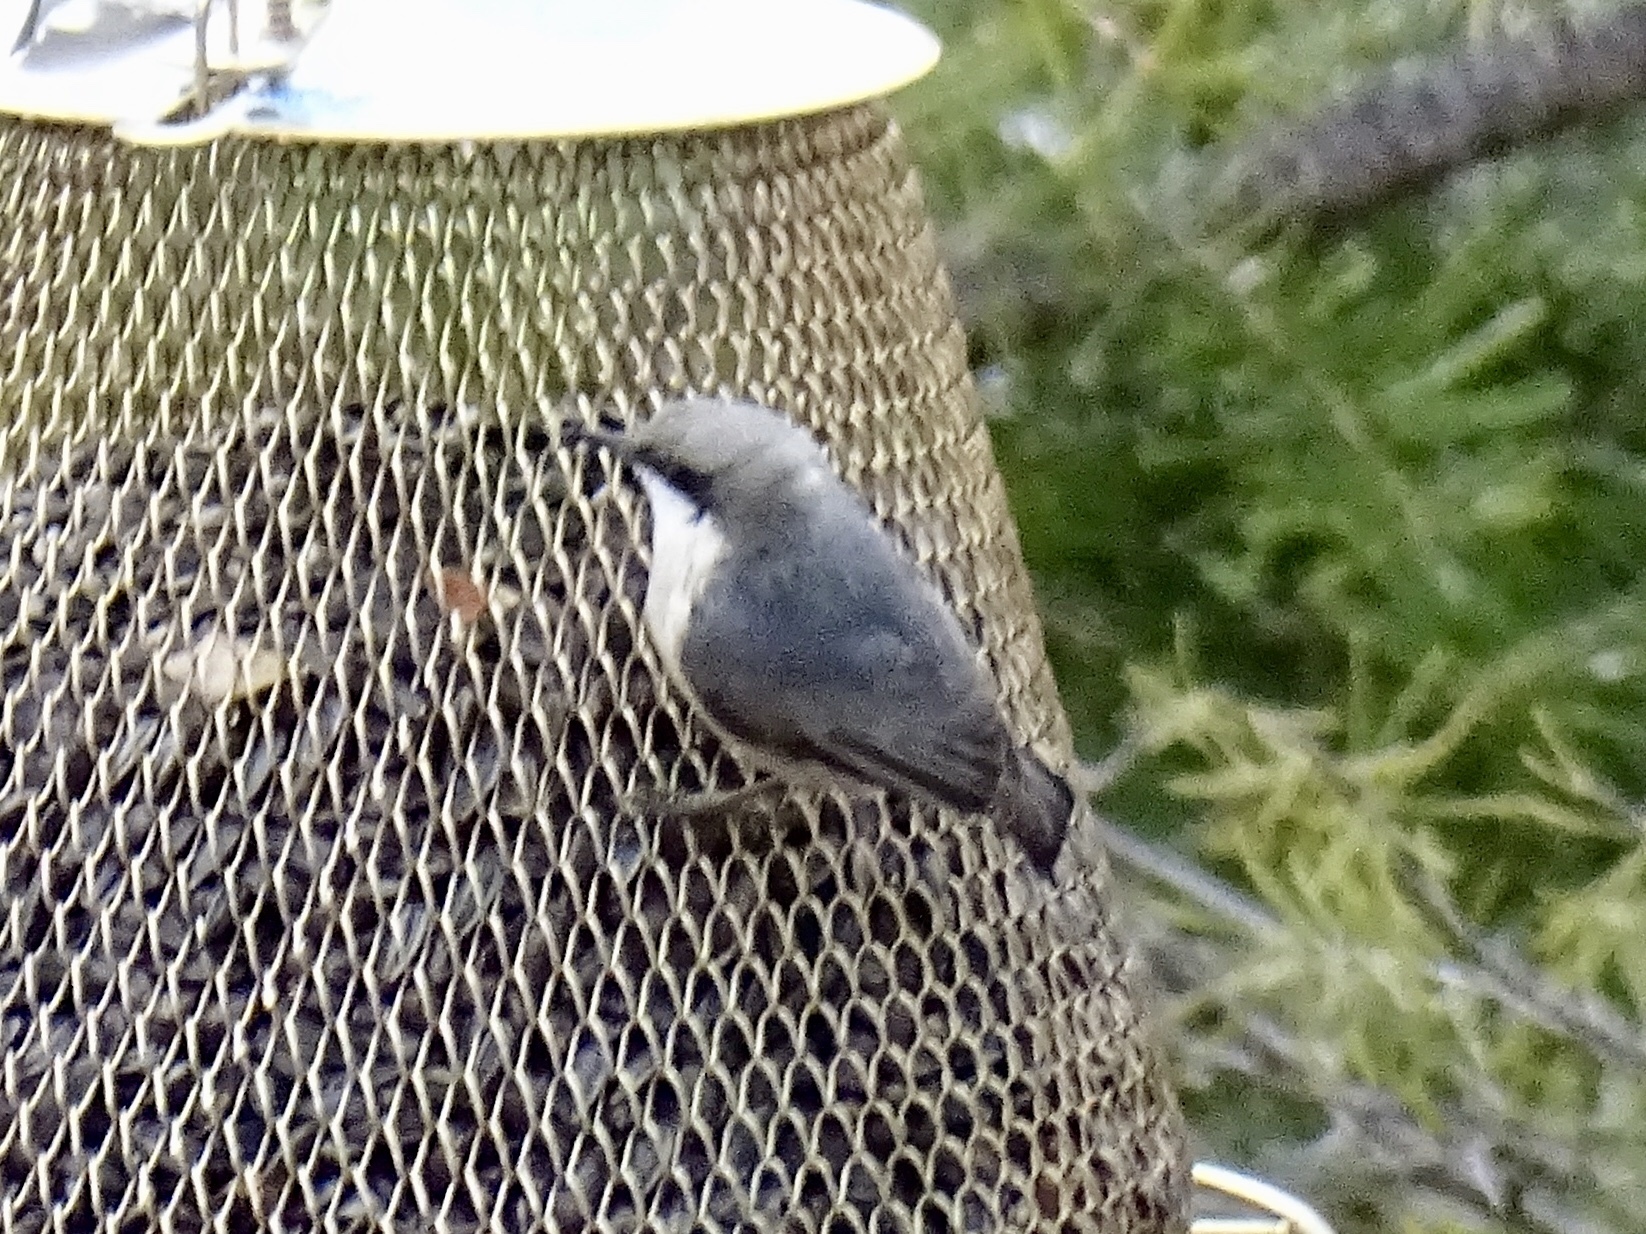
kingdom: Animalia
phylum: Chordata
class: Aves
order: Passeriformes
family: Sittidae
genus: Sitta
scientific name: Sitta pygmaea
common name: Pygmy nuthatch
